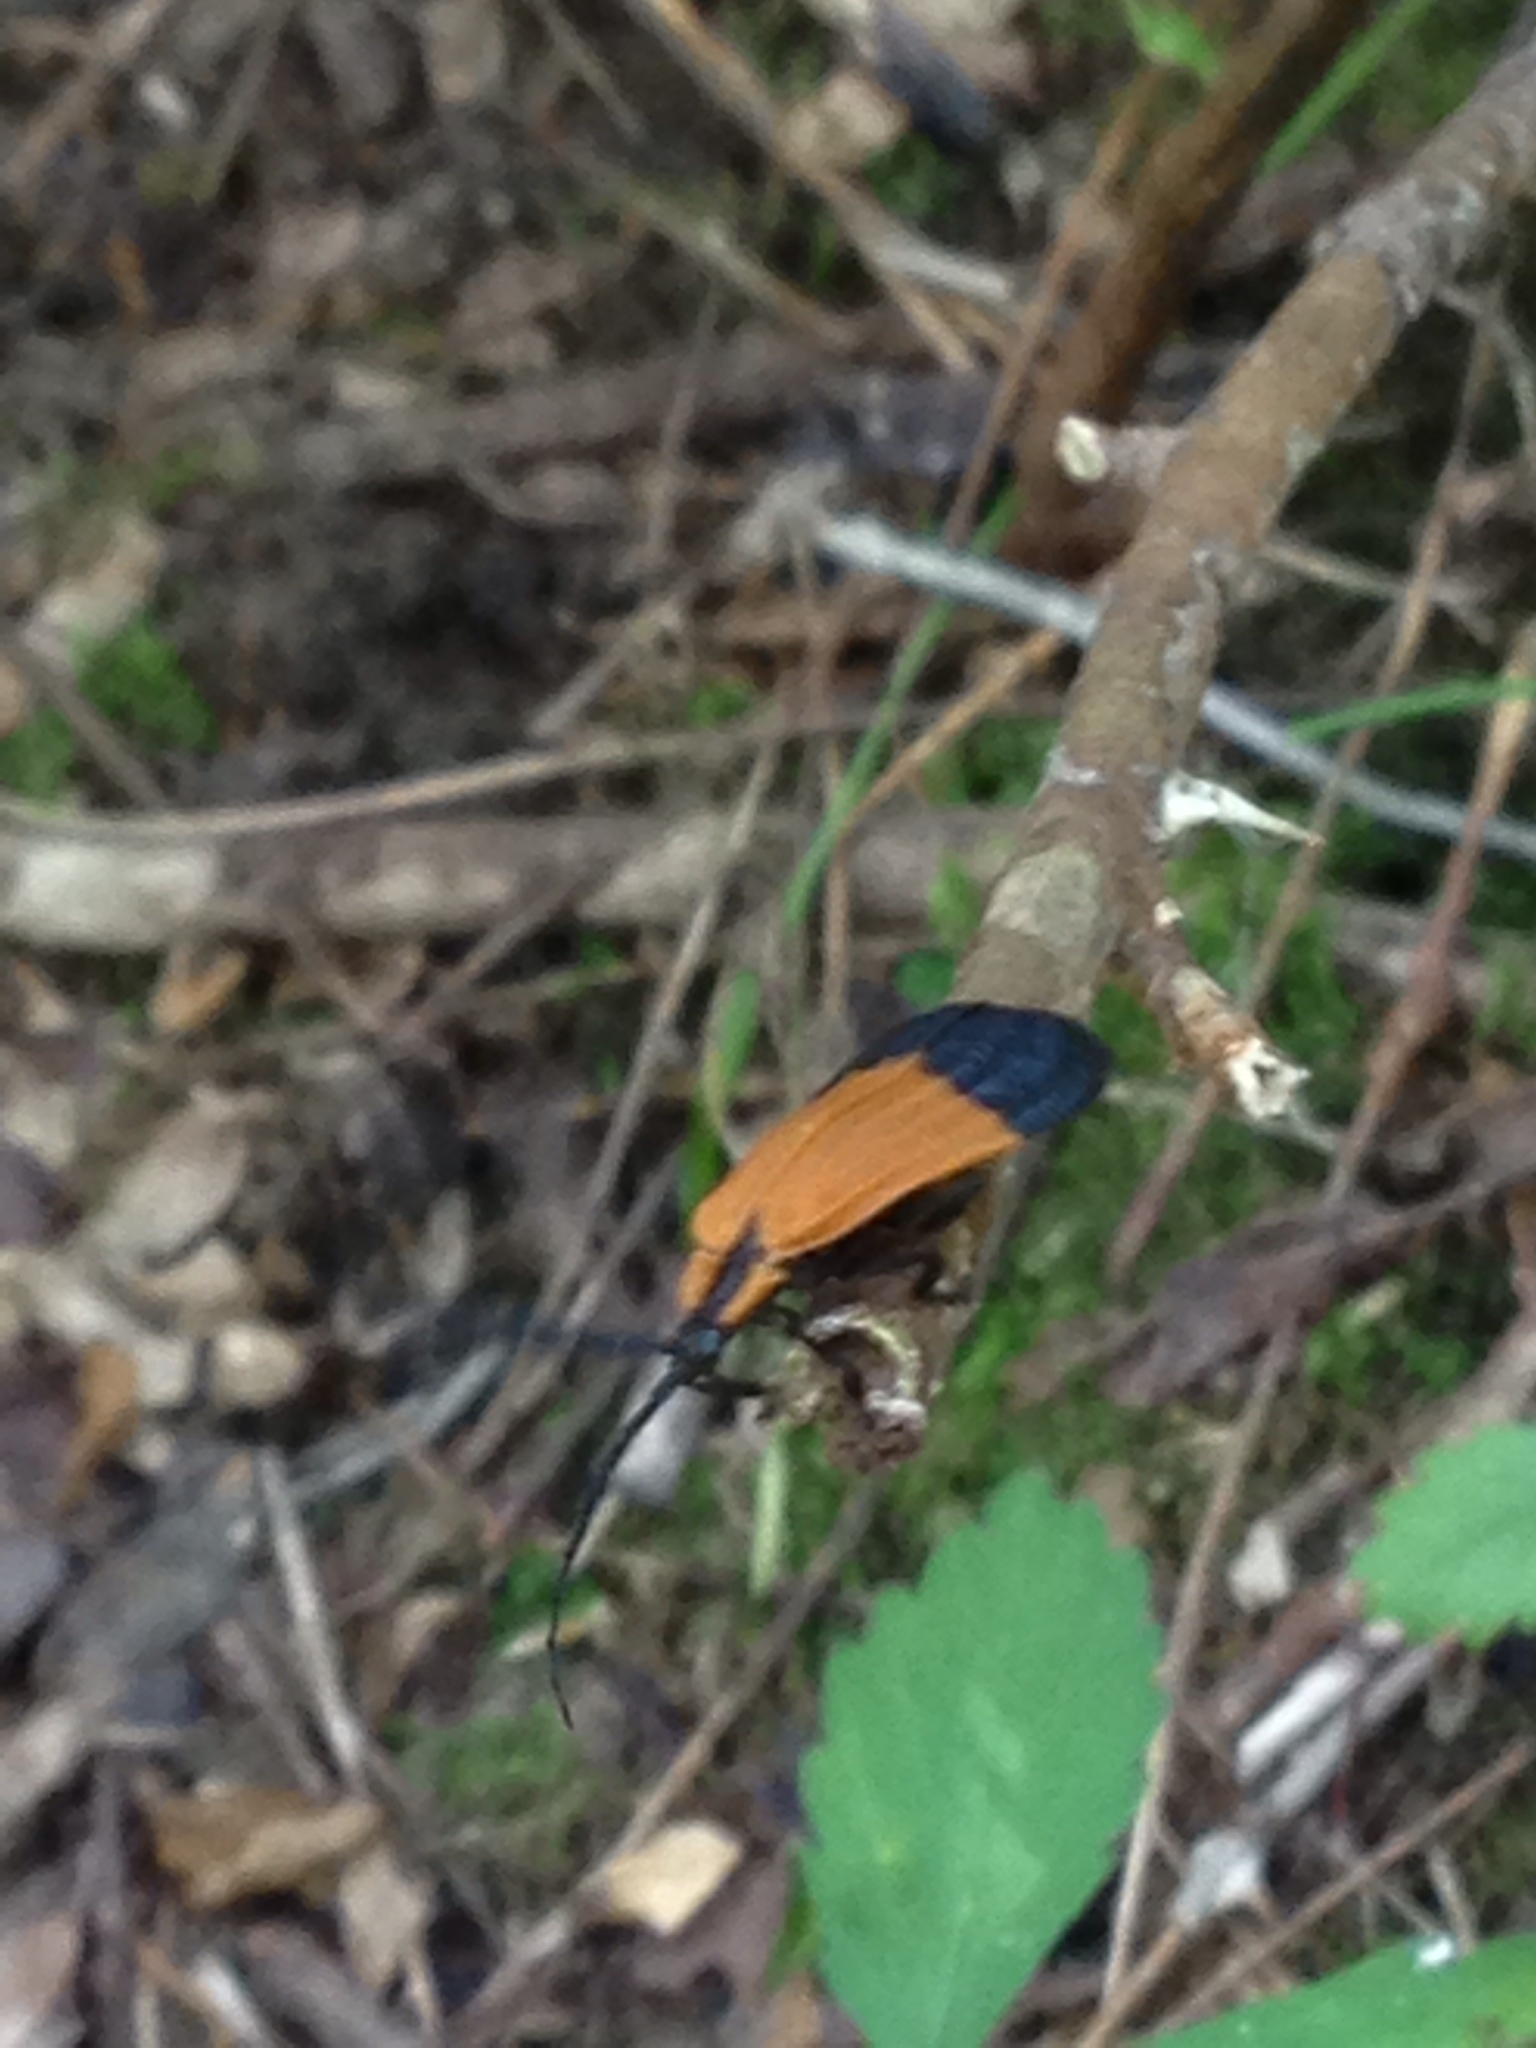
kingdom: Animalia
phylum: Arthropoda
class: Insecta
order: Coleoptera
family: Lycidae
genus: Calopteron
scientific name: Calopteron terminale
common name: End band net-winged beetle
